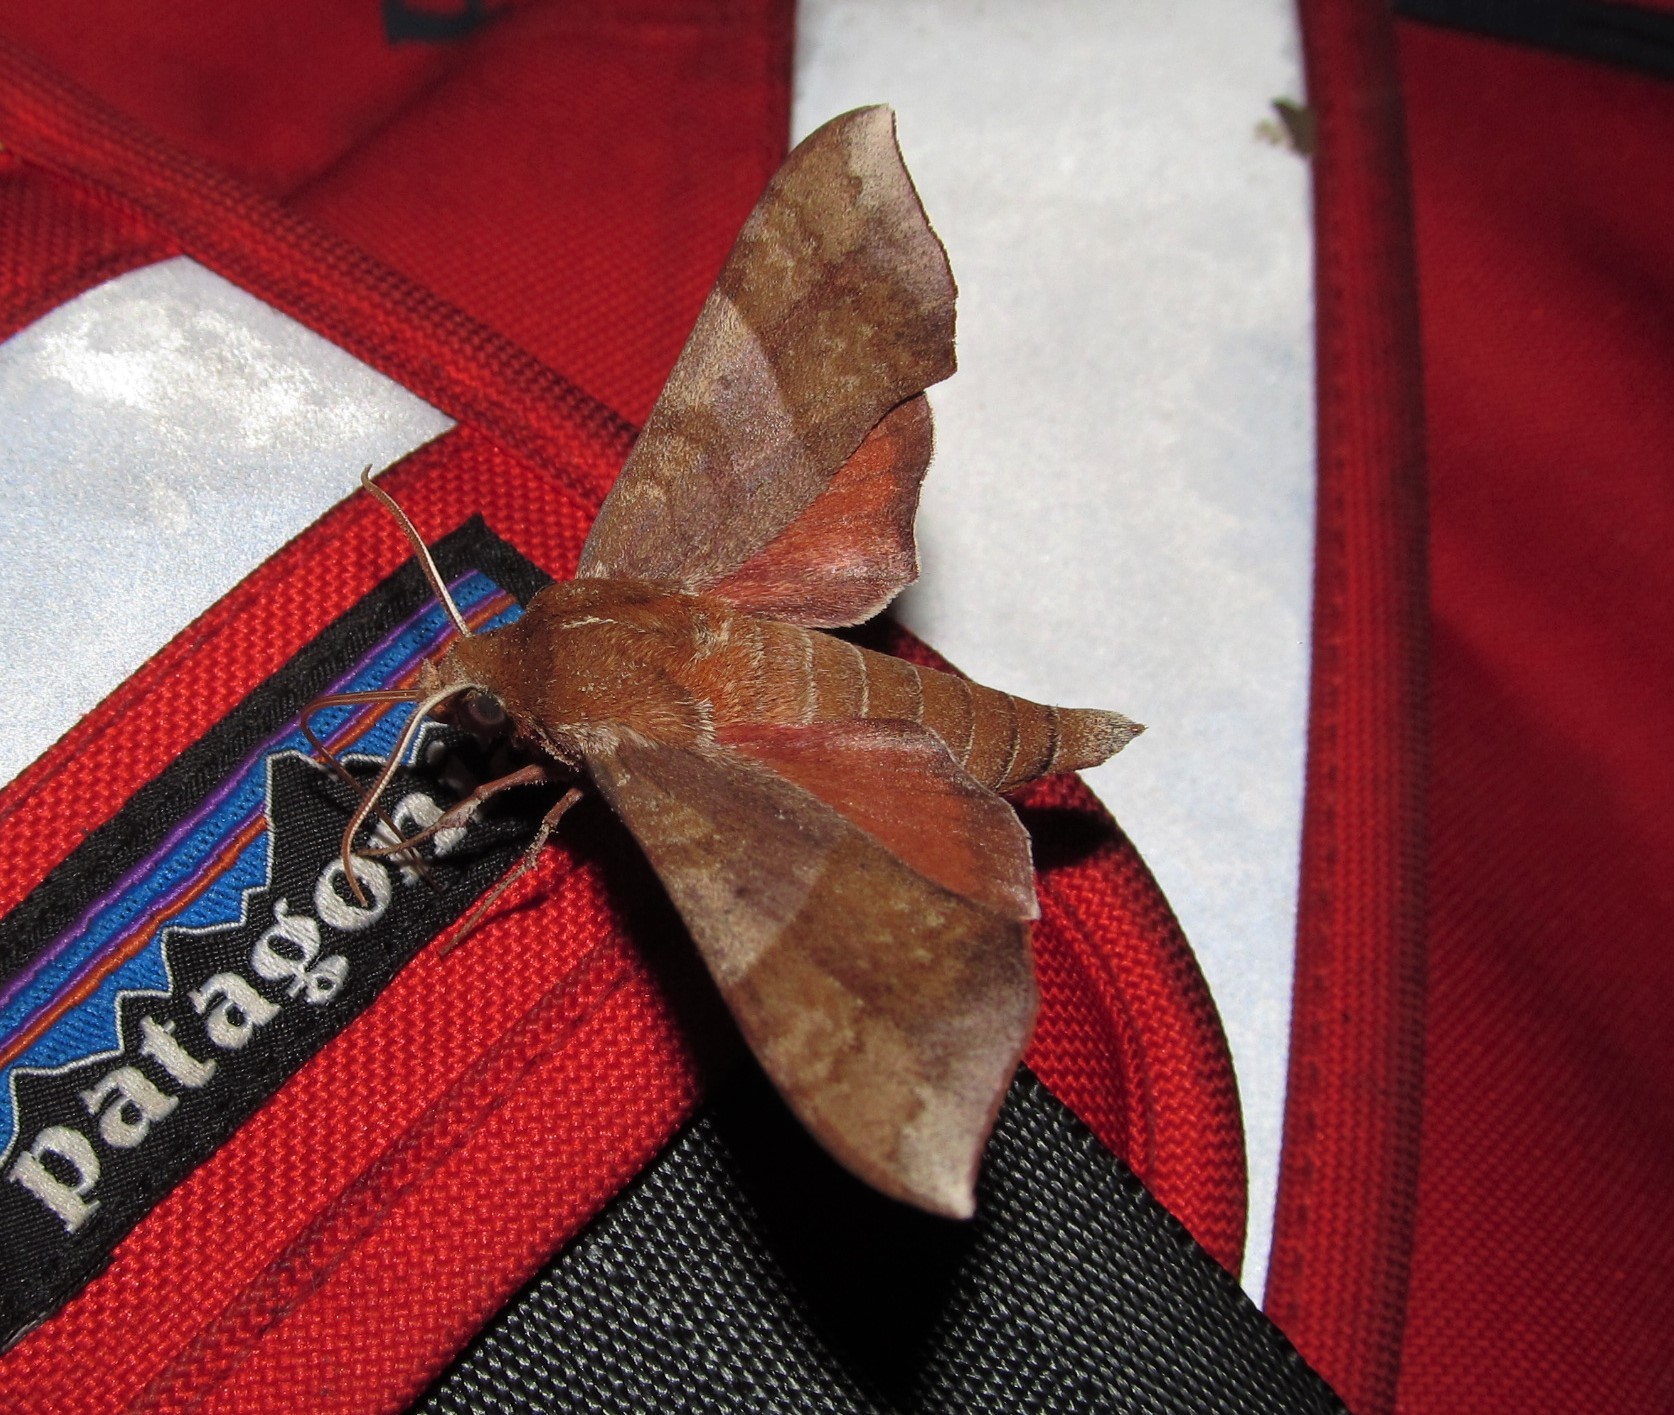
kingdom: Animalia
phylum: Arthropoda
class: Insecta
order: Lepidoptera
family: Sphingidae
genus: Darapsa
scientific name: Darapsa choerilus
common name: Azalea sphinx
